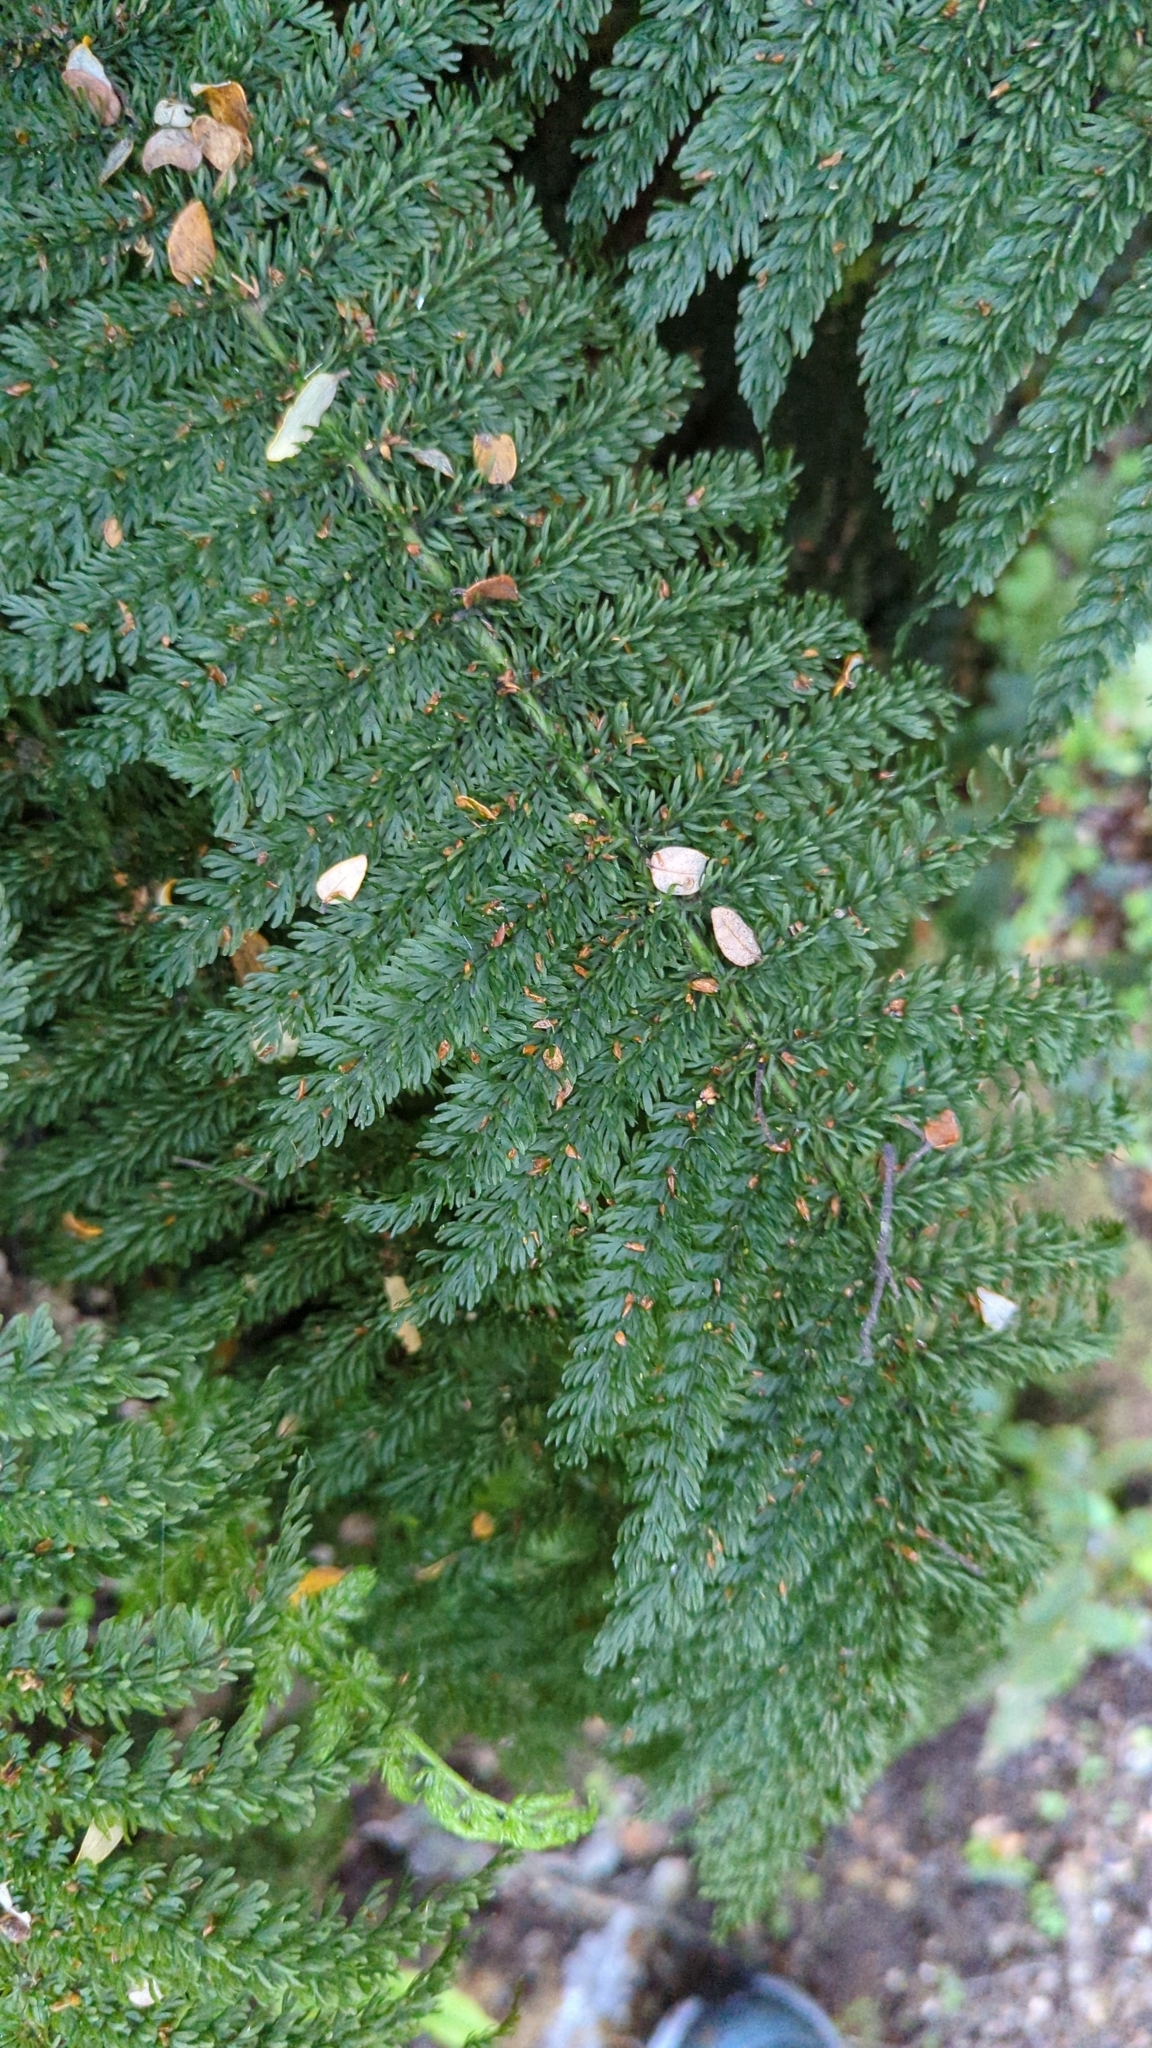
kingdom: Plantae
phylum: Tracheophyta
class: Polypodiopsida
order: Osmundales
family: Osmundaceae
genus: Leptopteris
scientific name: Leptopteris superba
